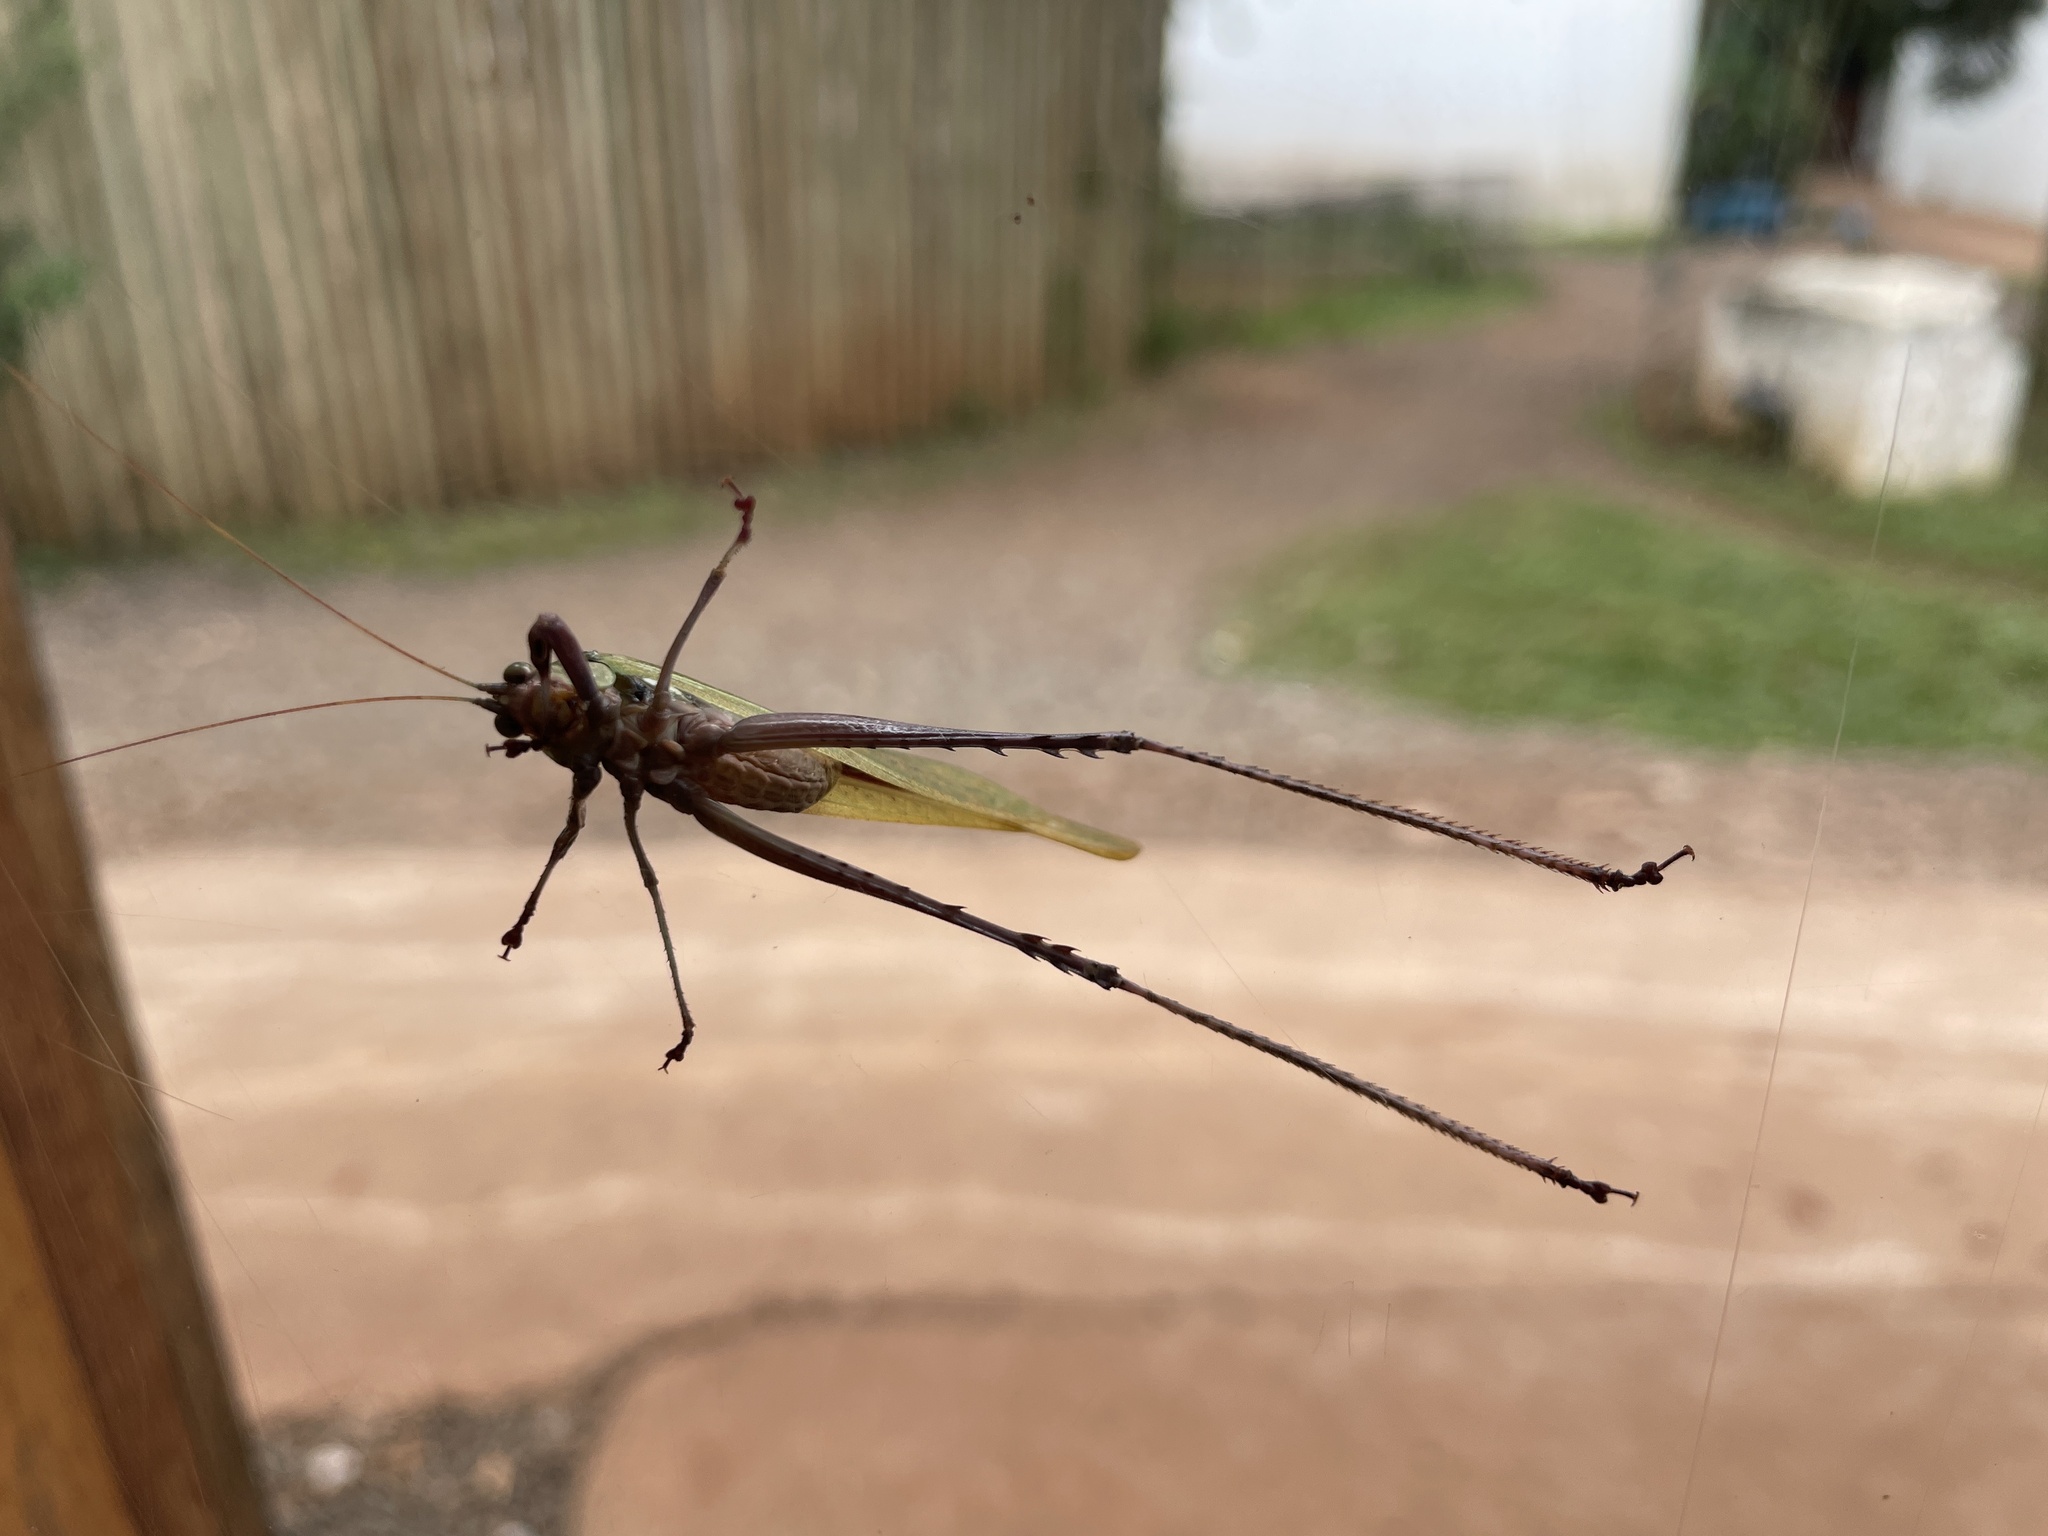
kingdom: Animalia
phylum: Arthropoda
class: Insecta
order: Orthoptera
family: Tettigoniidae
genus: Vellea
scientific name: Vellea cruenta
